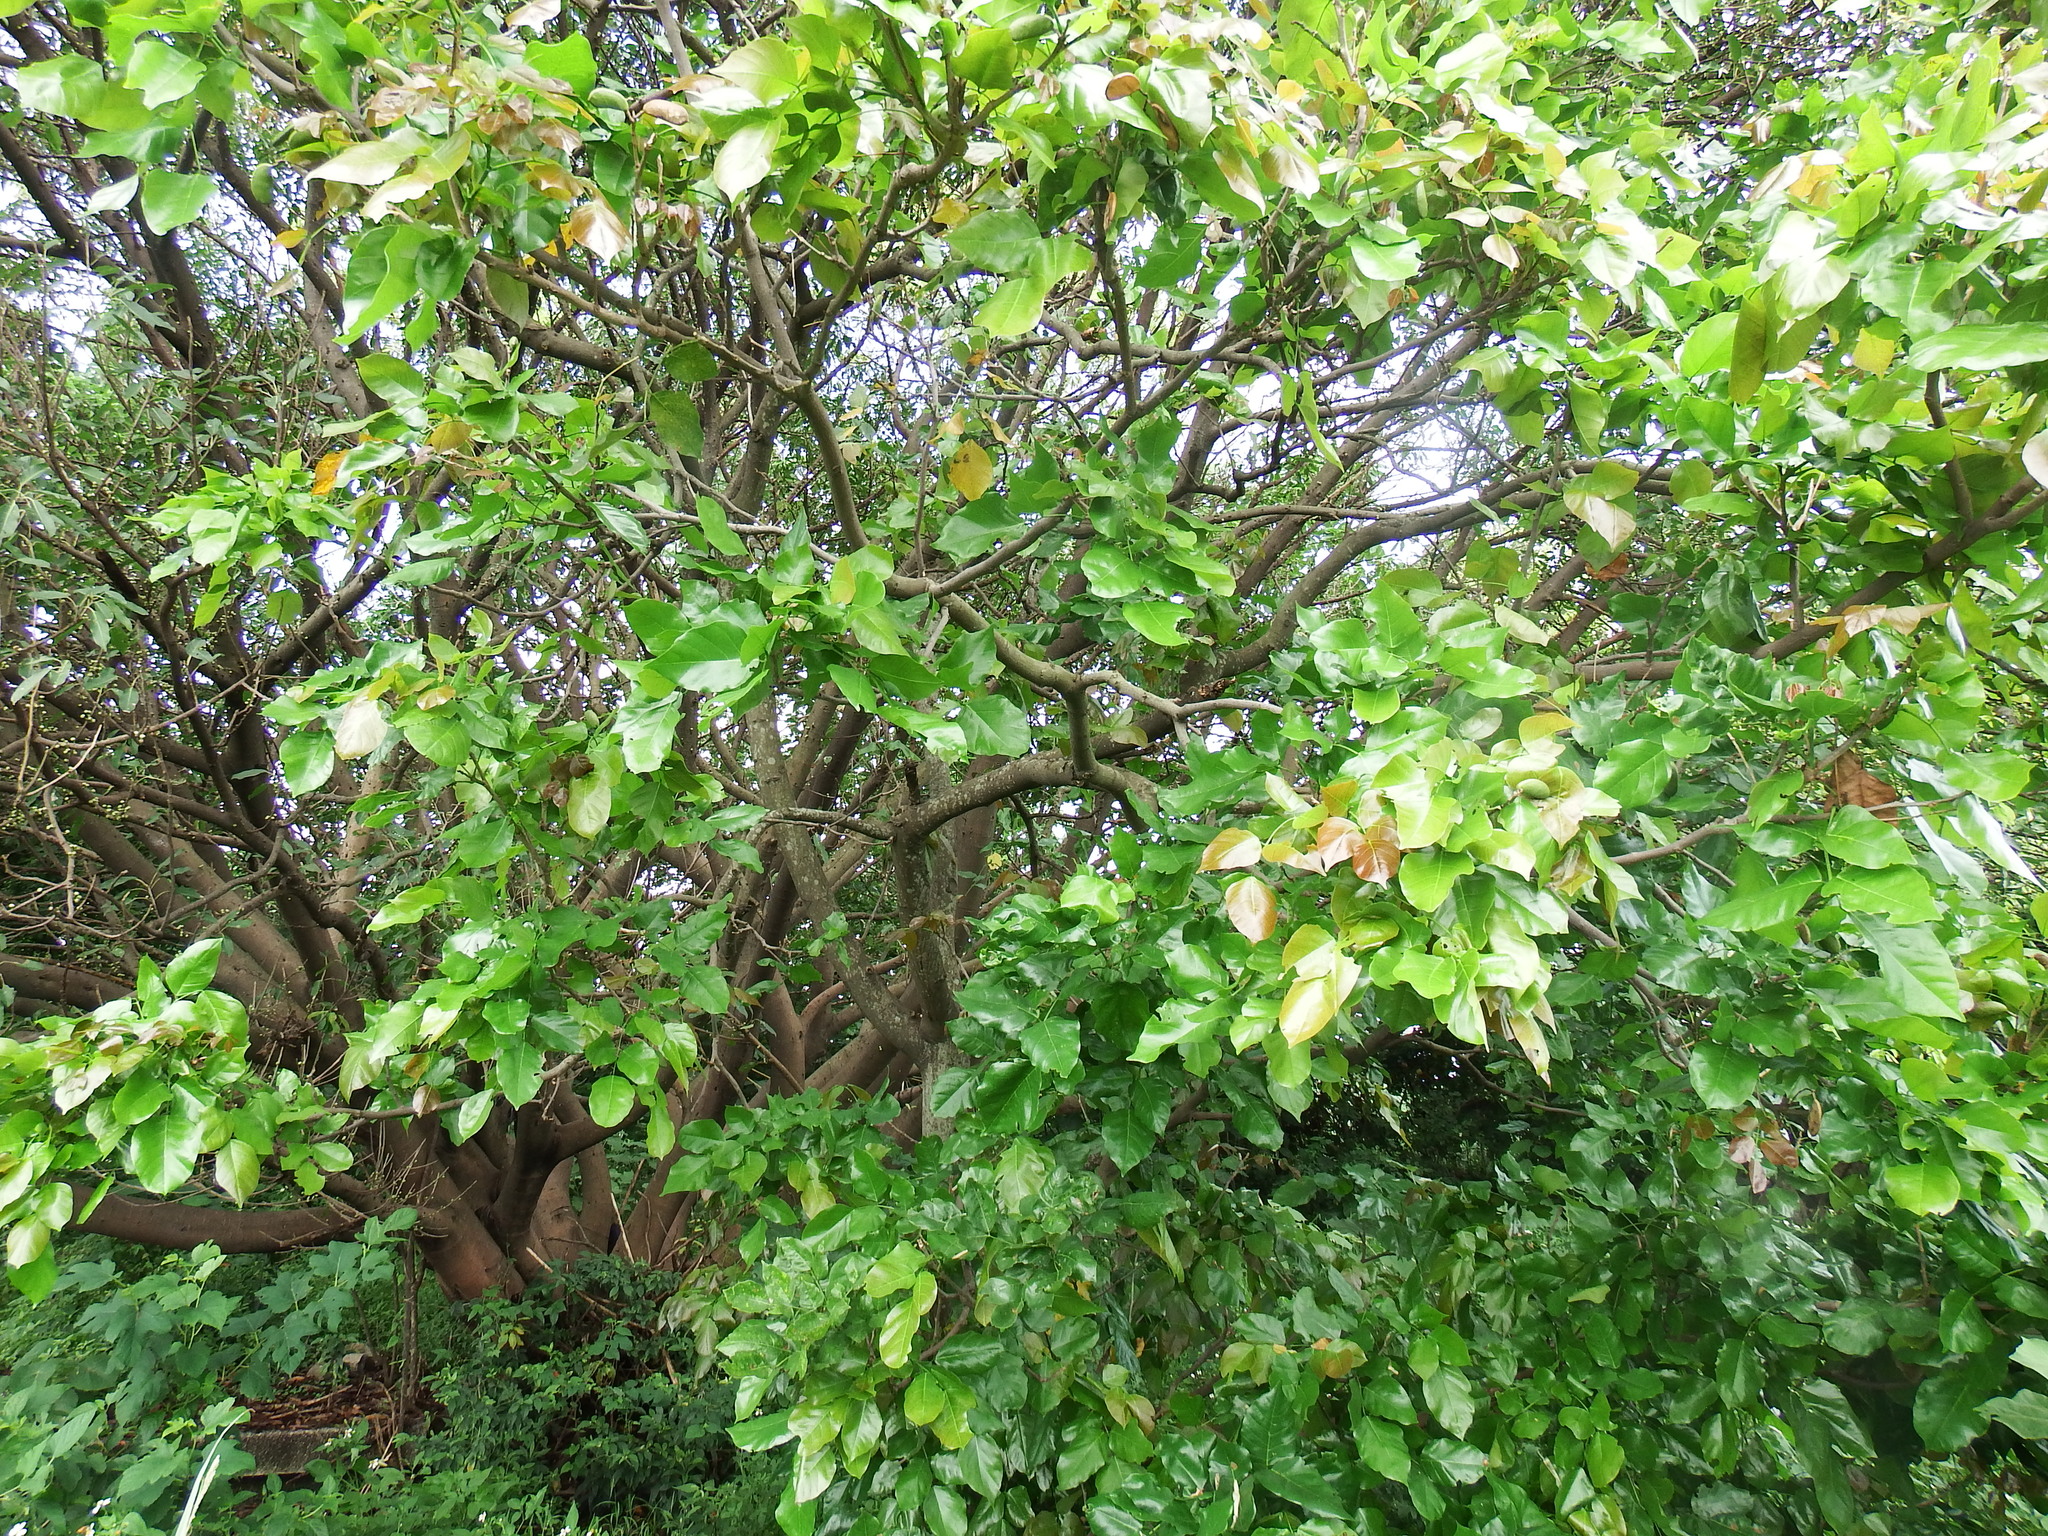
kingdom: Plantae
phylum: Tracheophyta
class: Magnoliopsida
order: Fabales
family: Fabaceae
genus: Pongamia
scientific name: Pongamia pinnata
